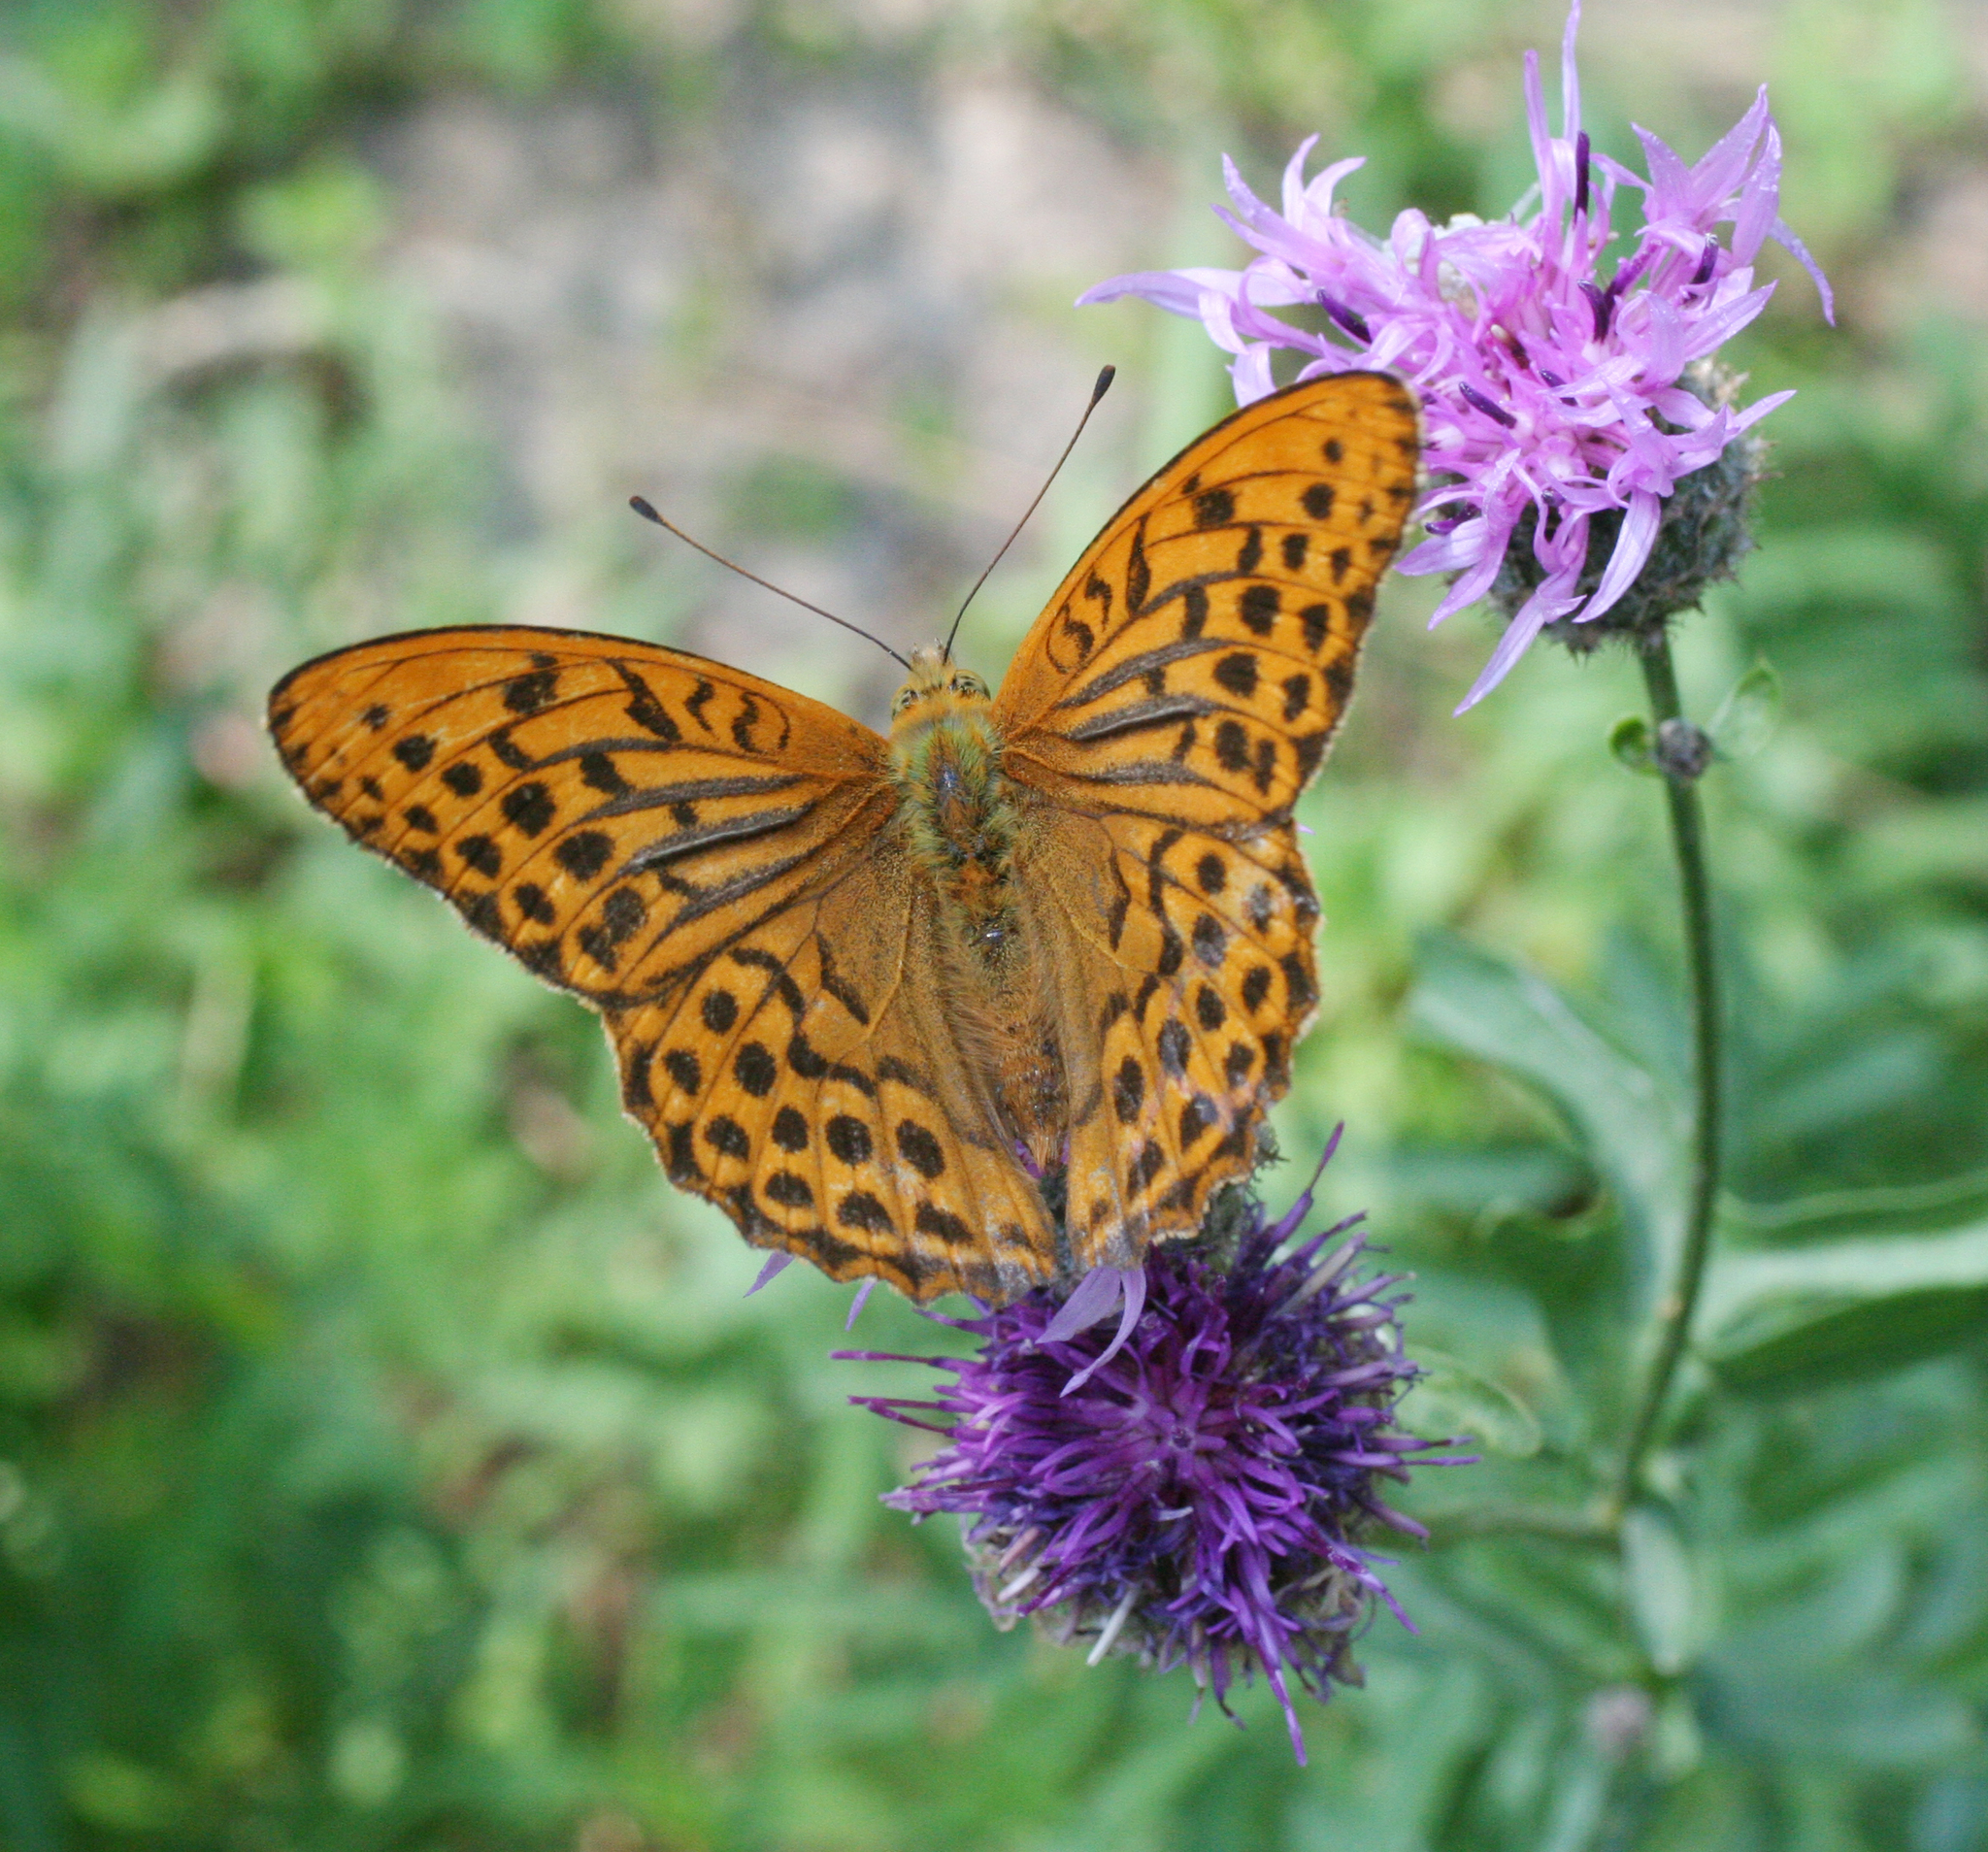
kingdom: Animalia
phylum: Arthropoda
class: Insecta
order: Lepidoptera
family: Nymphalidae
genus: Argynnis
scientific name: Argynnis paphia
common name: Silver-washed fritillary
